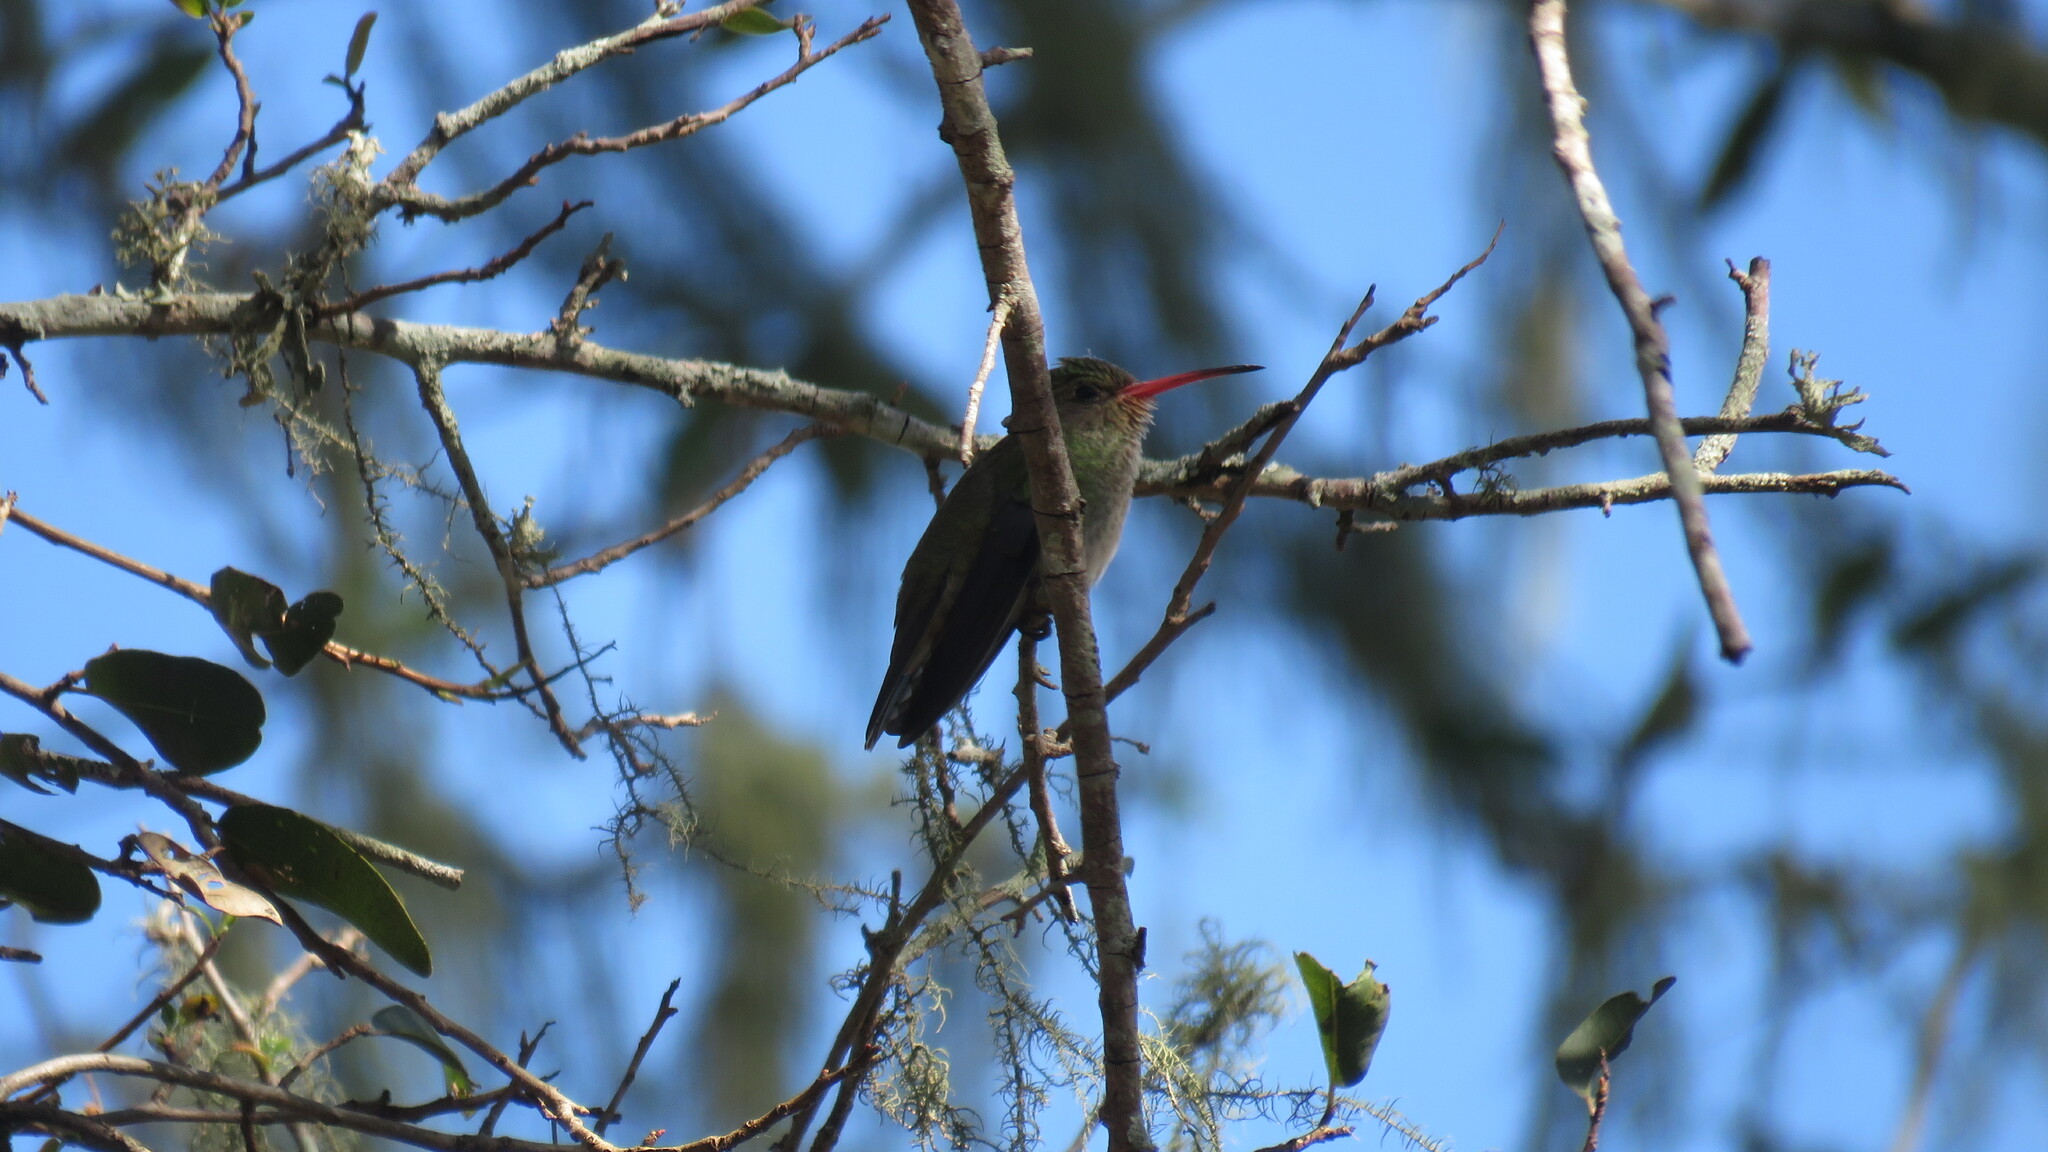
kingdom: Animalia
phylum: Chordata
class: Aves
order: Apodiformes
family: Trochilidae
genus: Hylocharis
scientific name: Hylocharis chrysura
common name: Gilded sapphire
